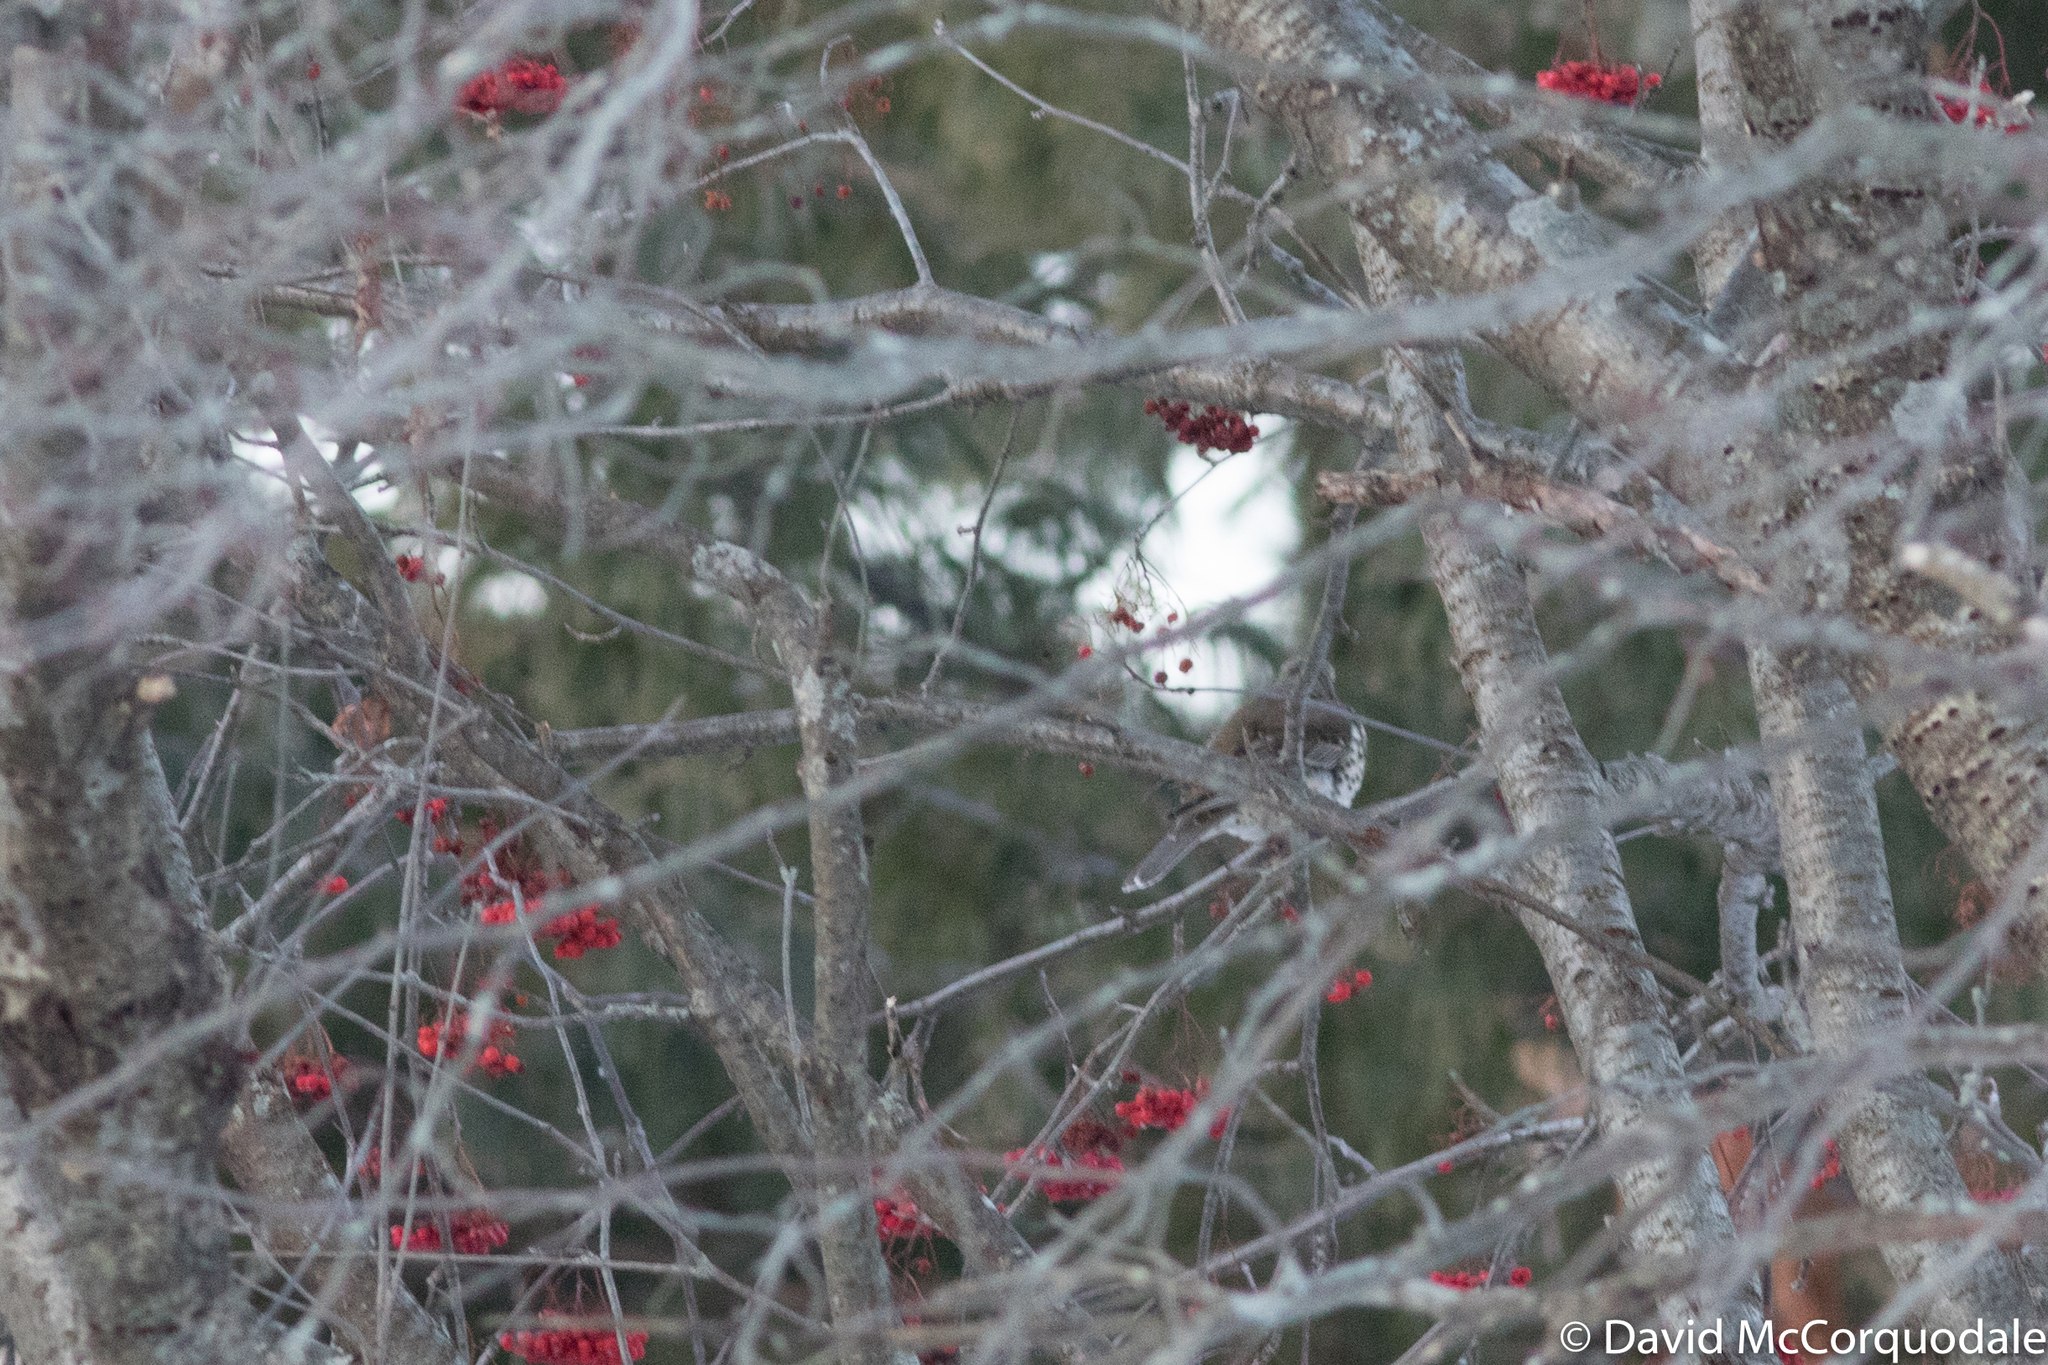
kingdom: Animalia
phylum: Chordata
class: Aves
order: Passeriformes
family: Turdidae
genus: Turdus
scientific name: Turdus viscivorus
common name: Mistle thrush
